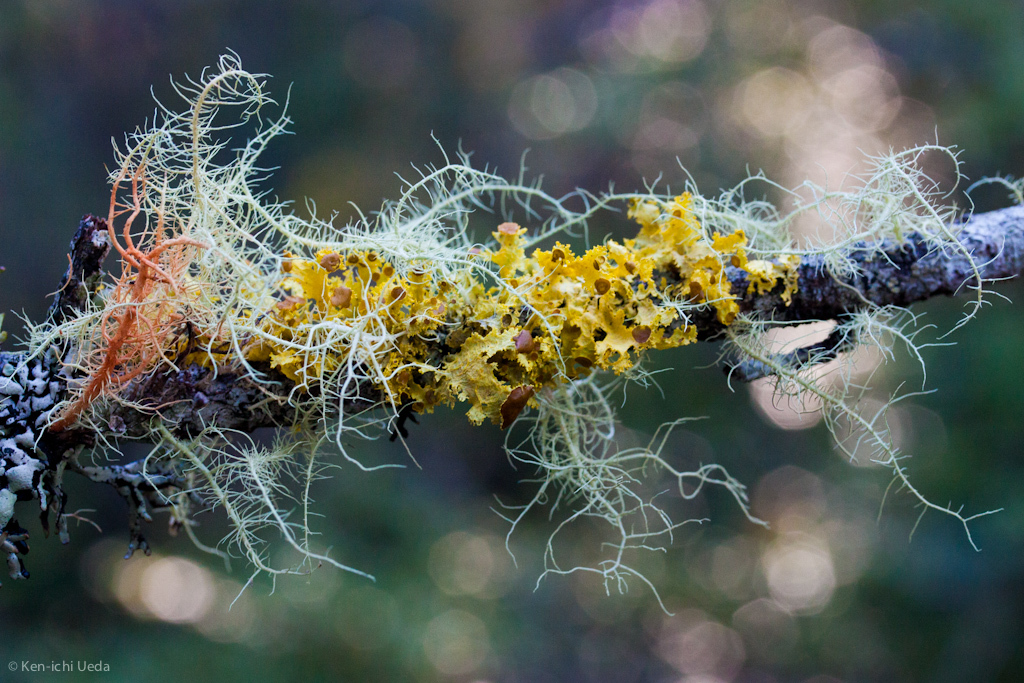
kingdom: Fungi
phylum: Ascomycota
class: Lecanoromycetes
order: Lecanorales
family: Parmeliaceae
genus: Vulpicida
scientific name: Vulpicida canadensis
